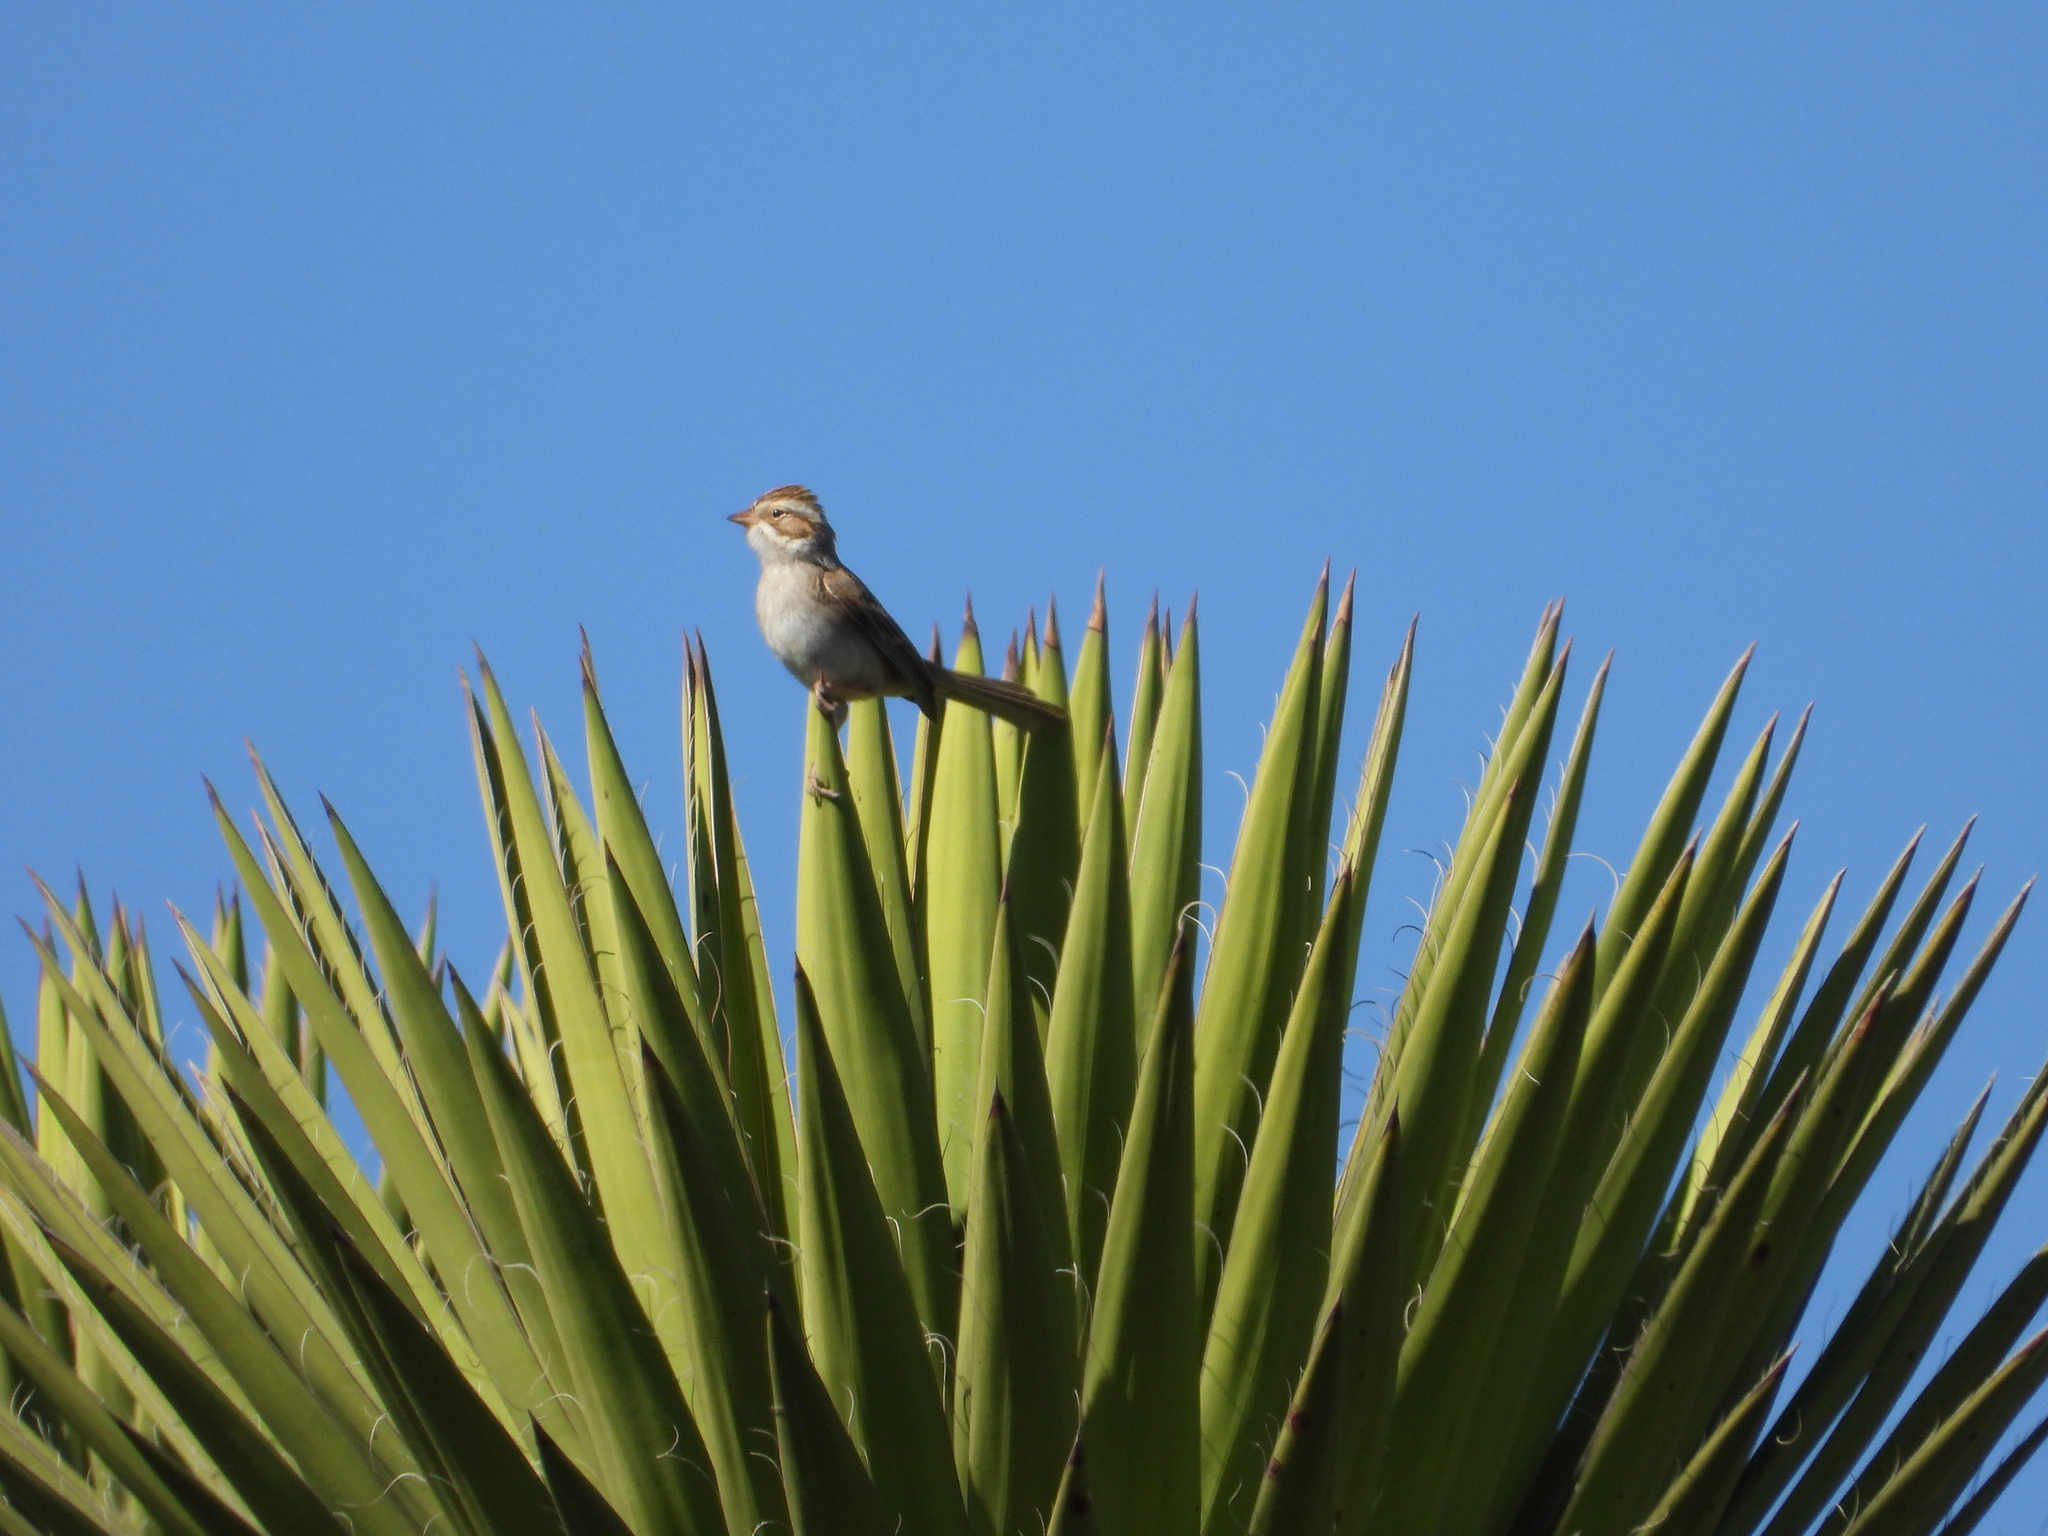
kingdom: Animalia
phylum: Chordata
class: Aves
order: Passeriformes
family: Passerellidae
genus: Spizella
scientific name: Spizella pallida
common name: Clay-colored sparrow
